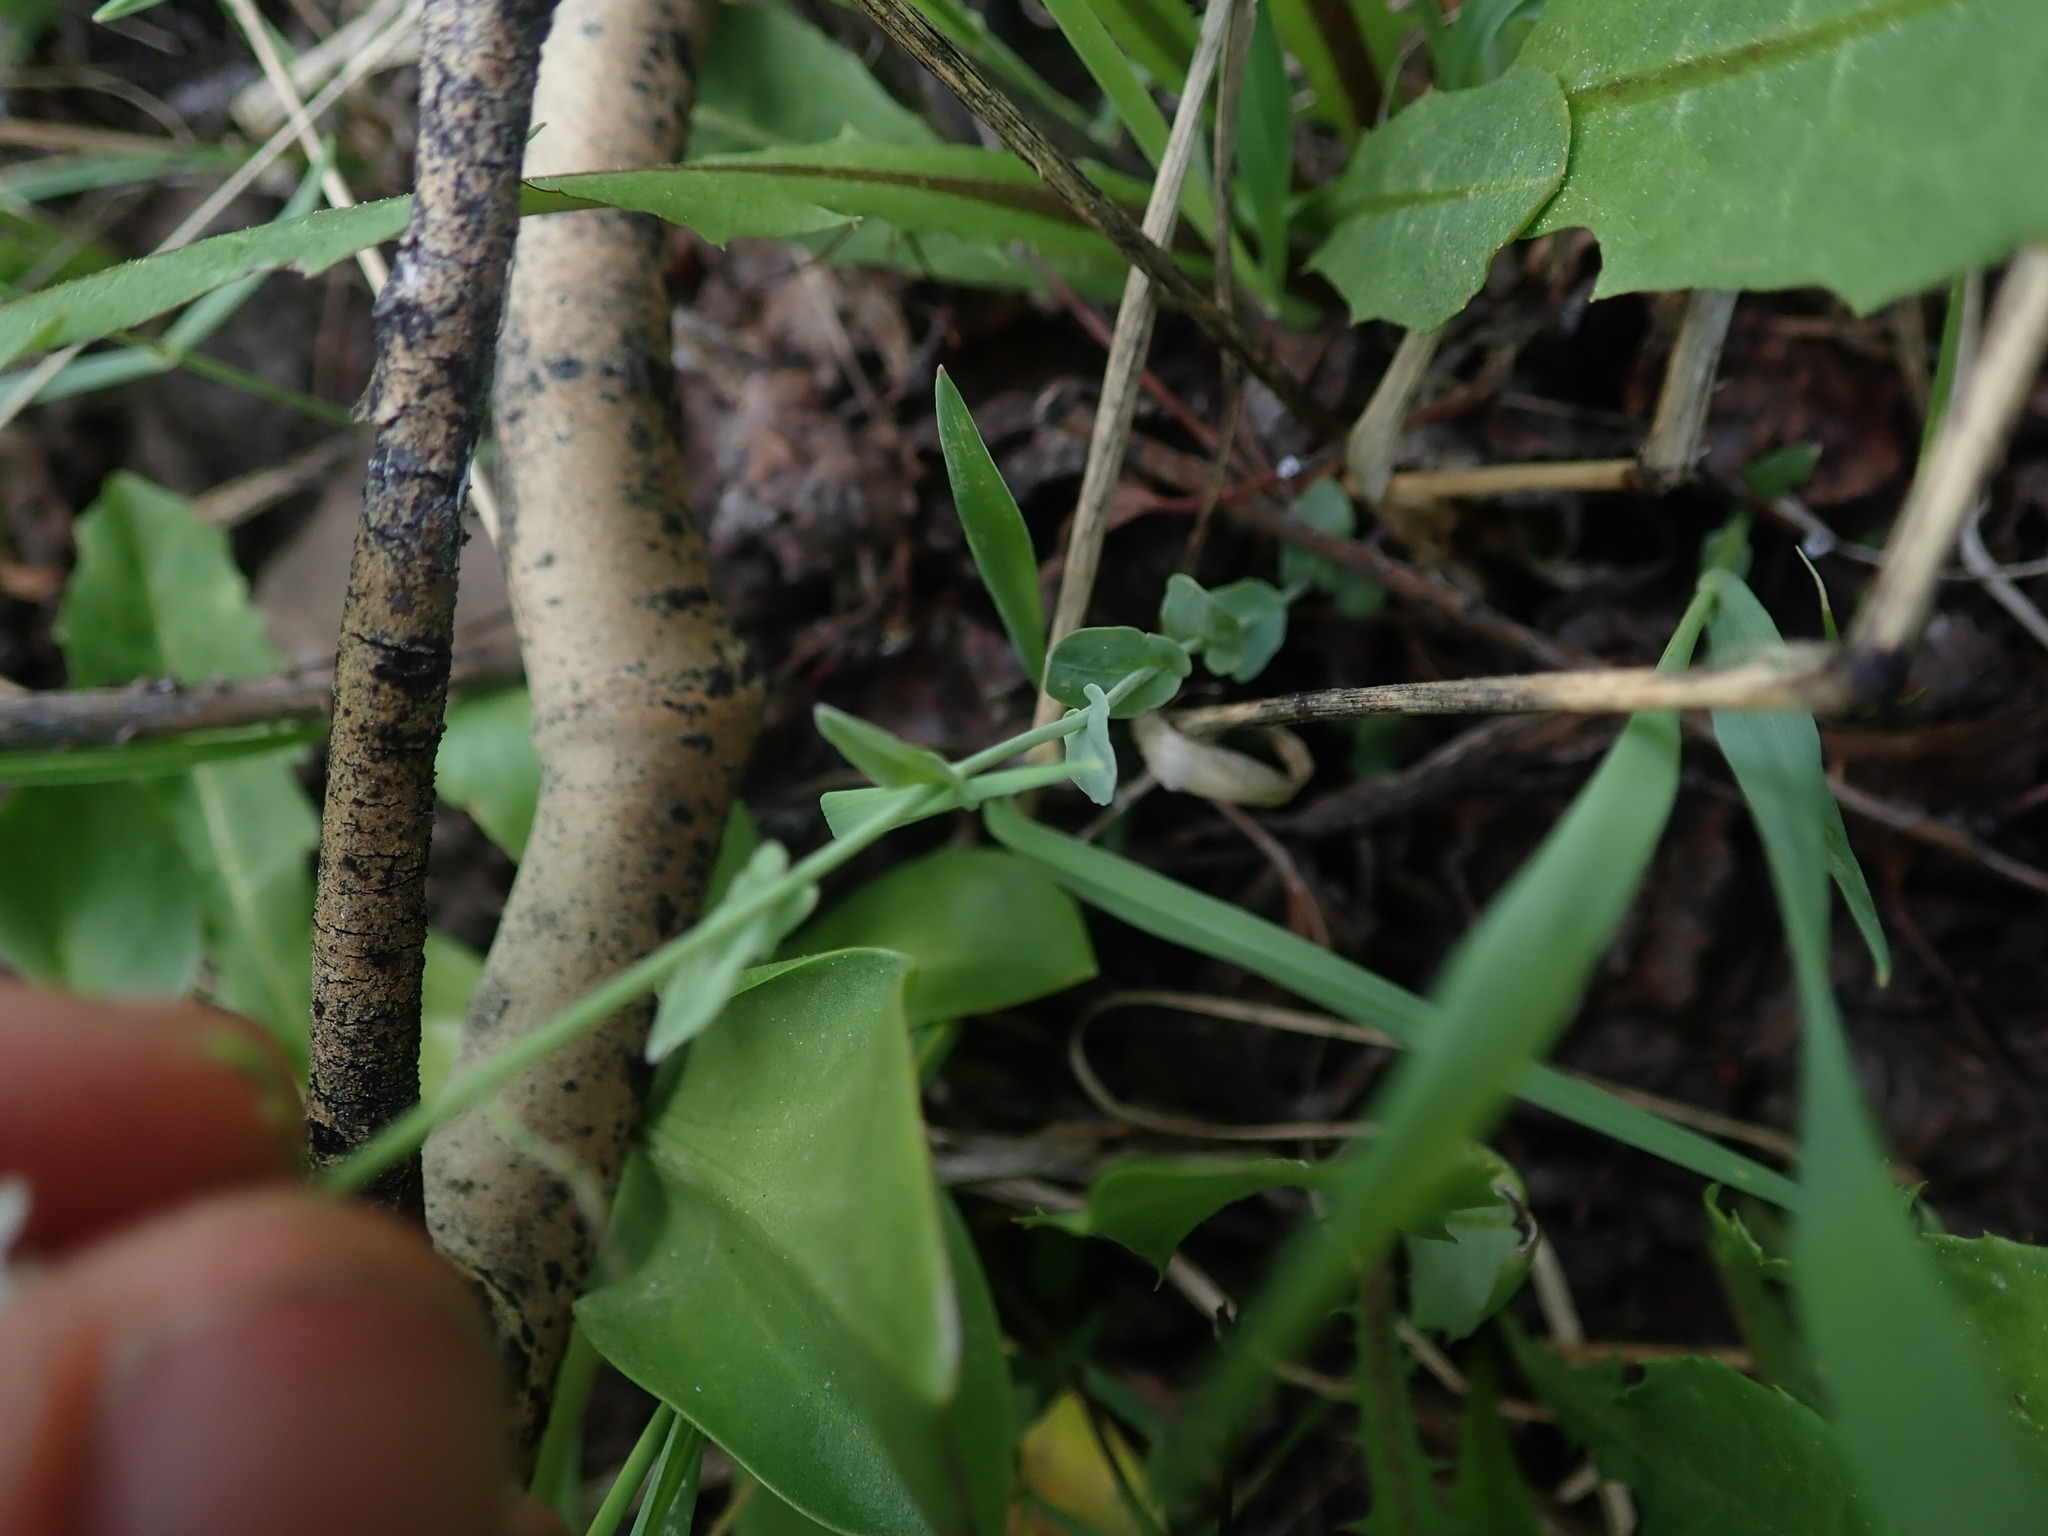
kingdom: Plantae
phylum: Tracheophyta
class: Magnoliopsida
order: Brassicales
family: Brassicaceae
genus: Noccaea
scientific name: Noccaea fendleri
